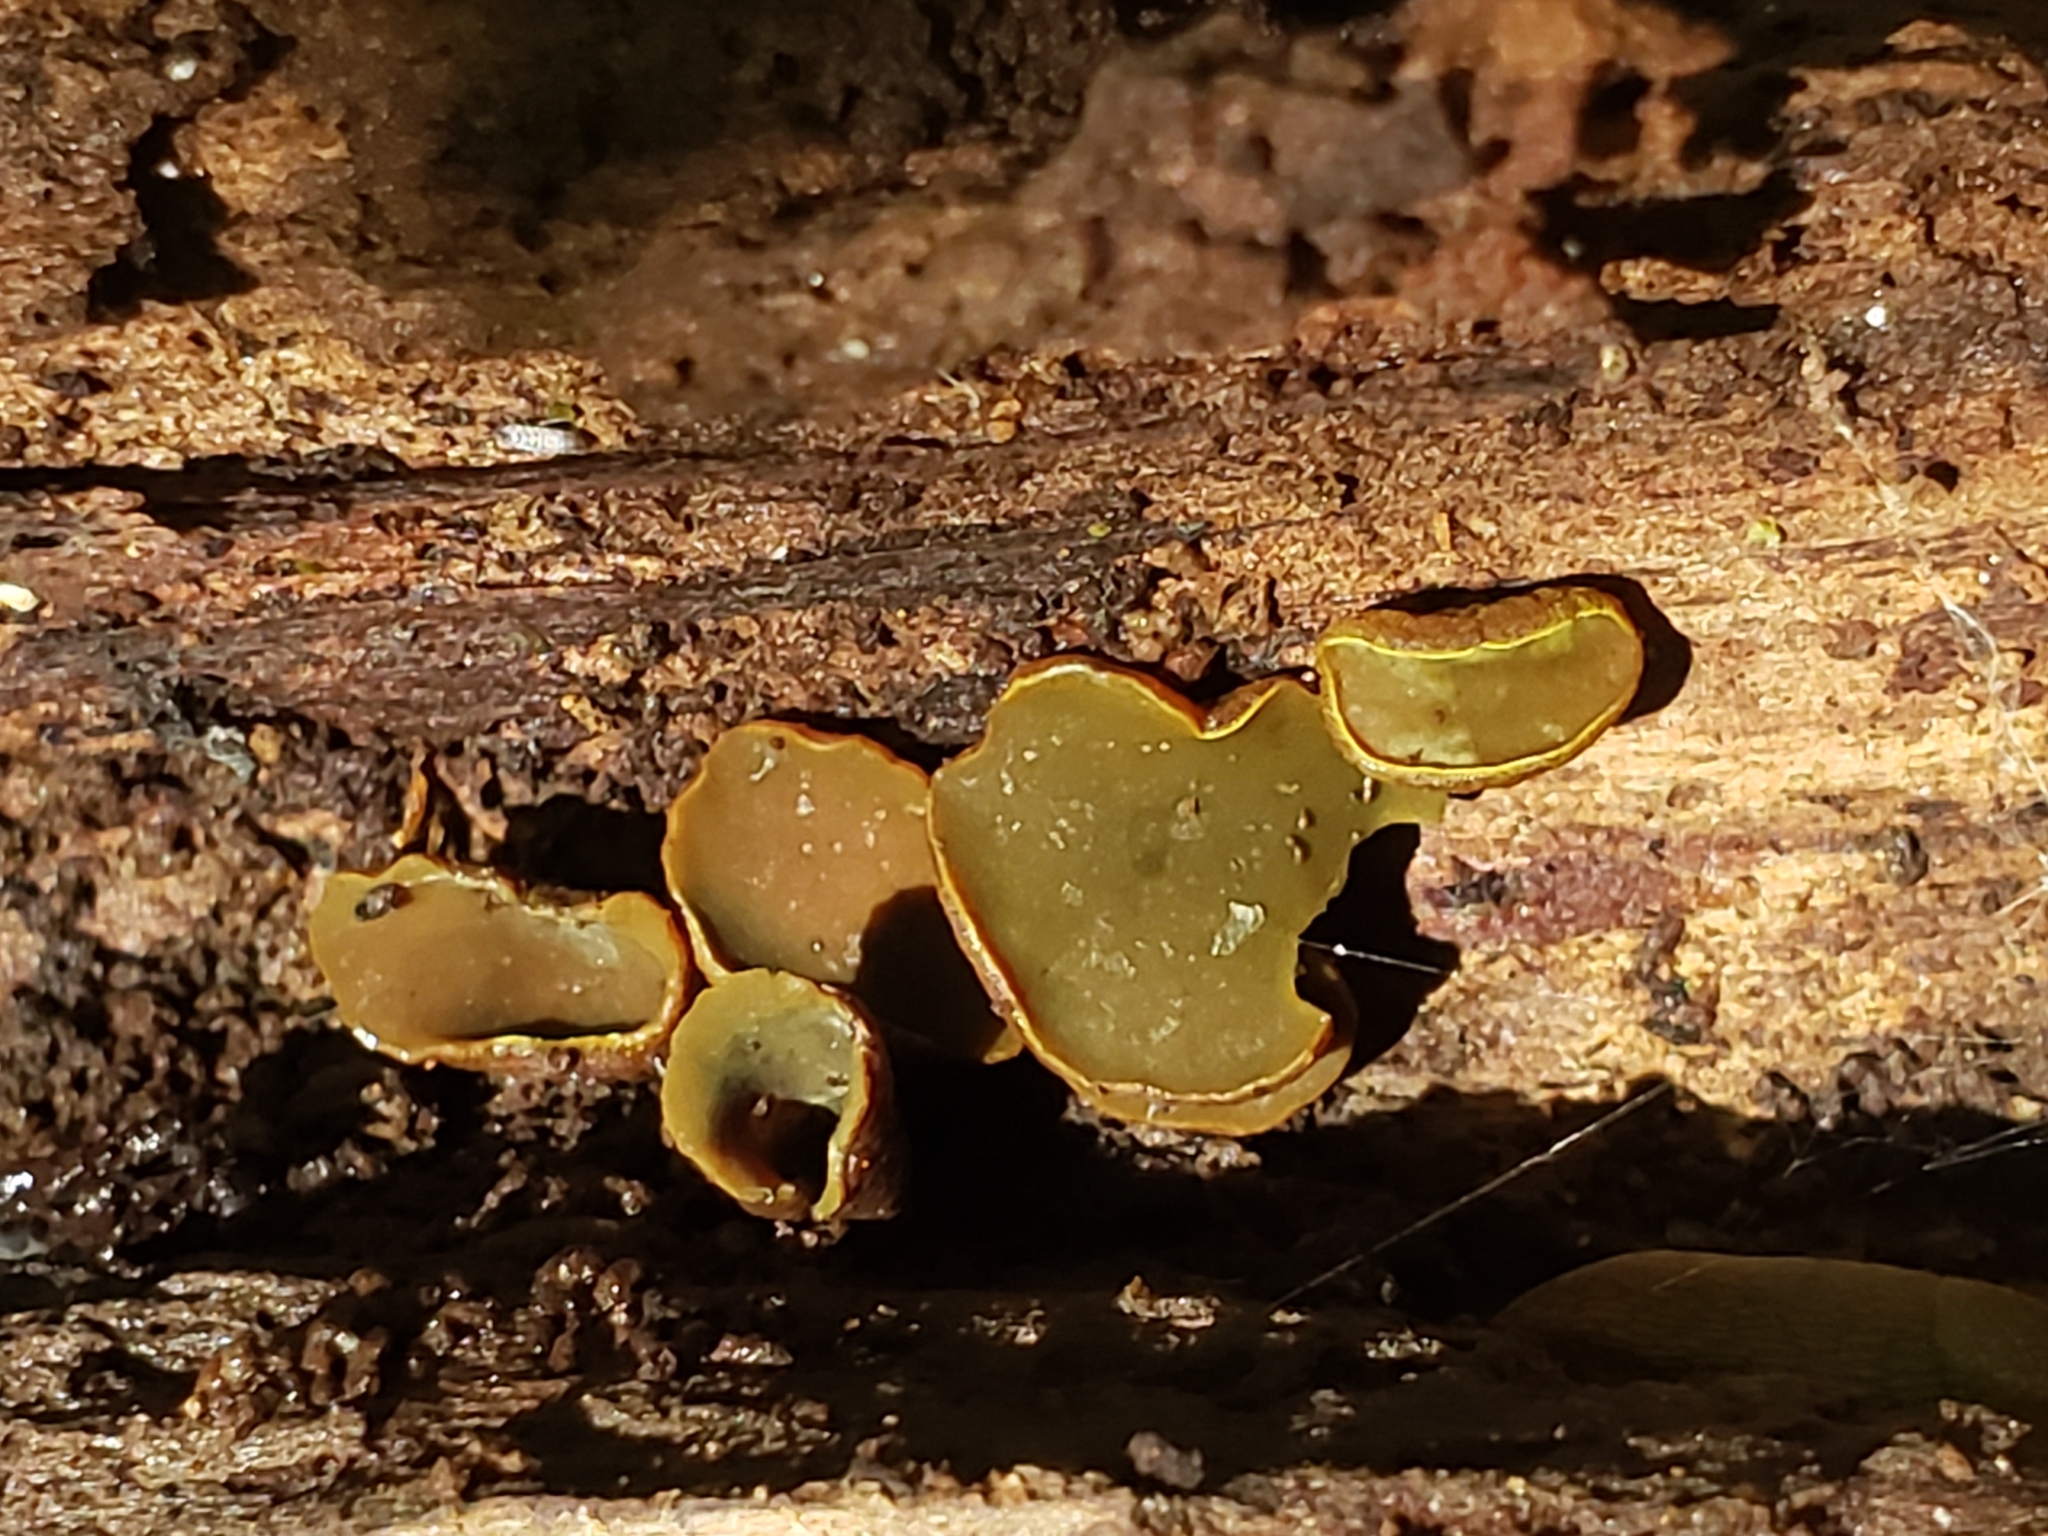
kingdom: Fungi
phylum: Ascomycota
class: Leotiomycetes
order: Helotiales
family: Cenangiaceae
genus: Chlorencoelia
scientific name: Chlorencoelia torta
